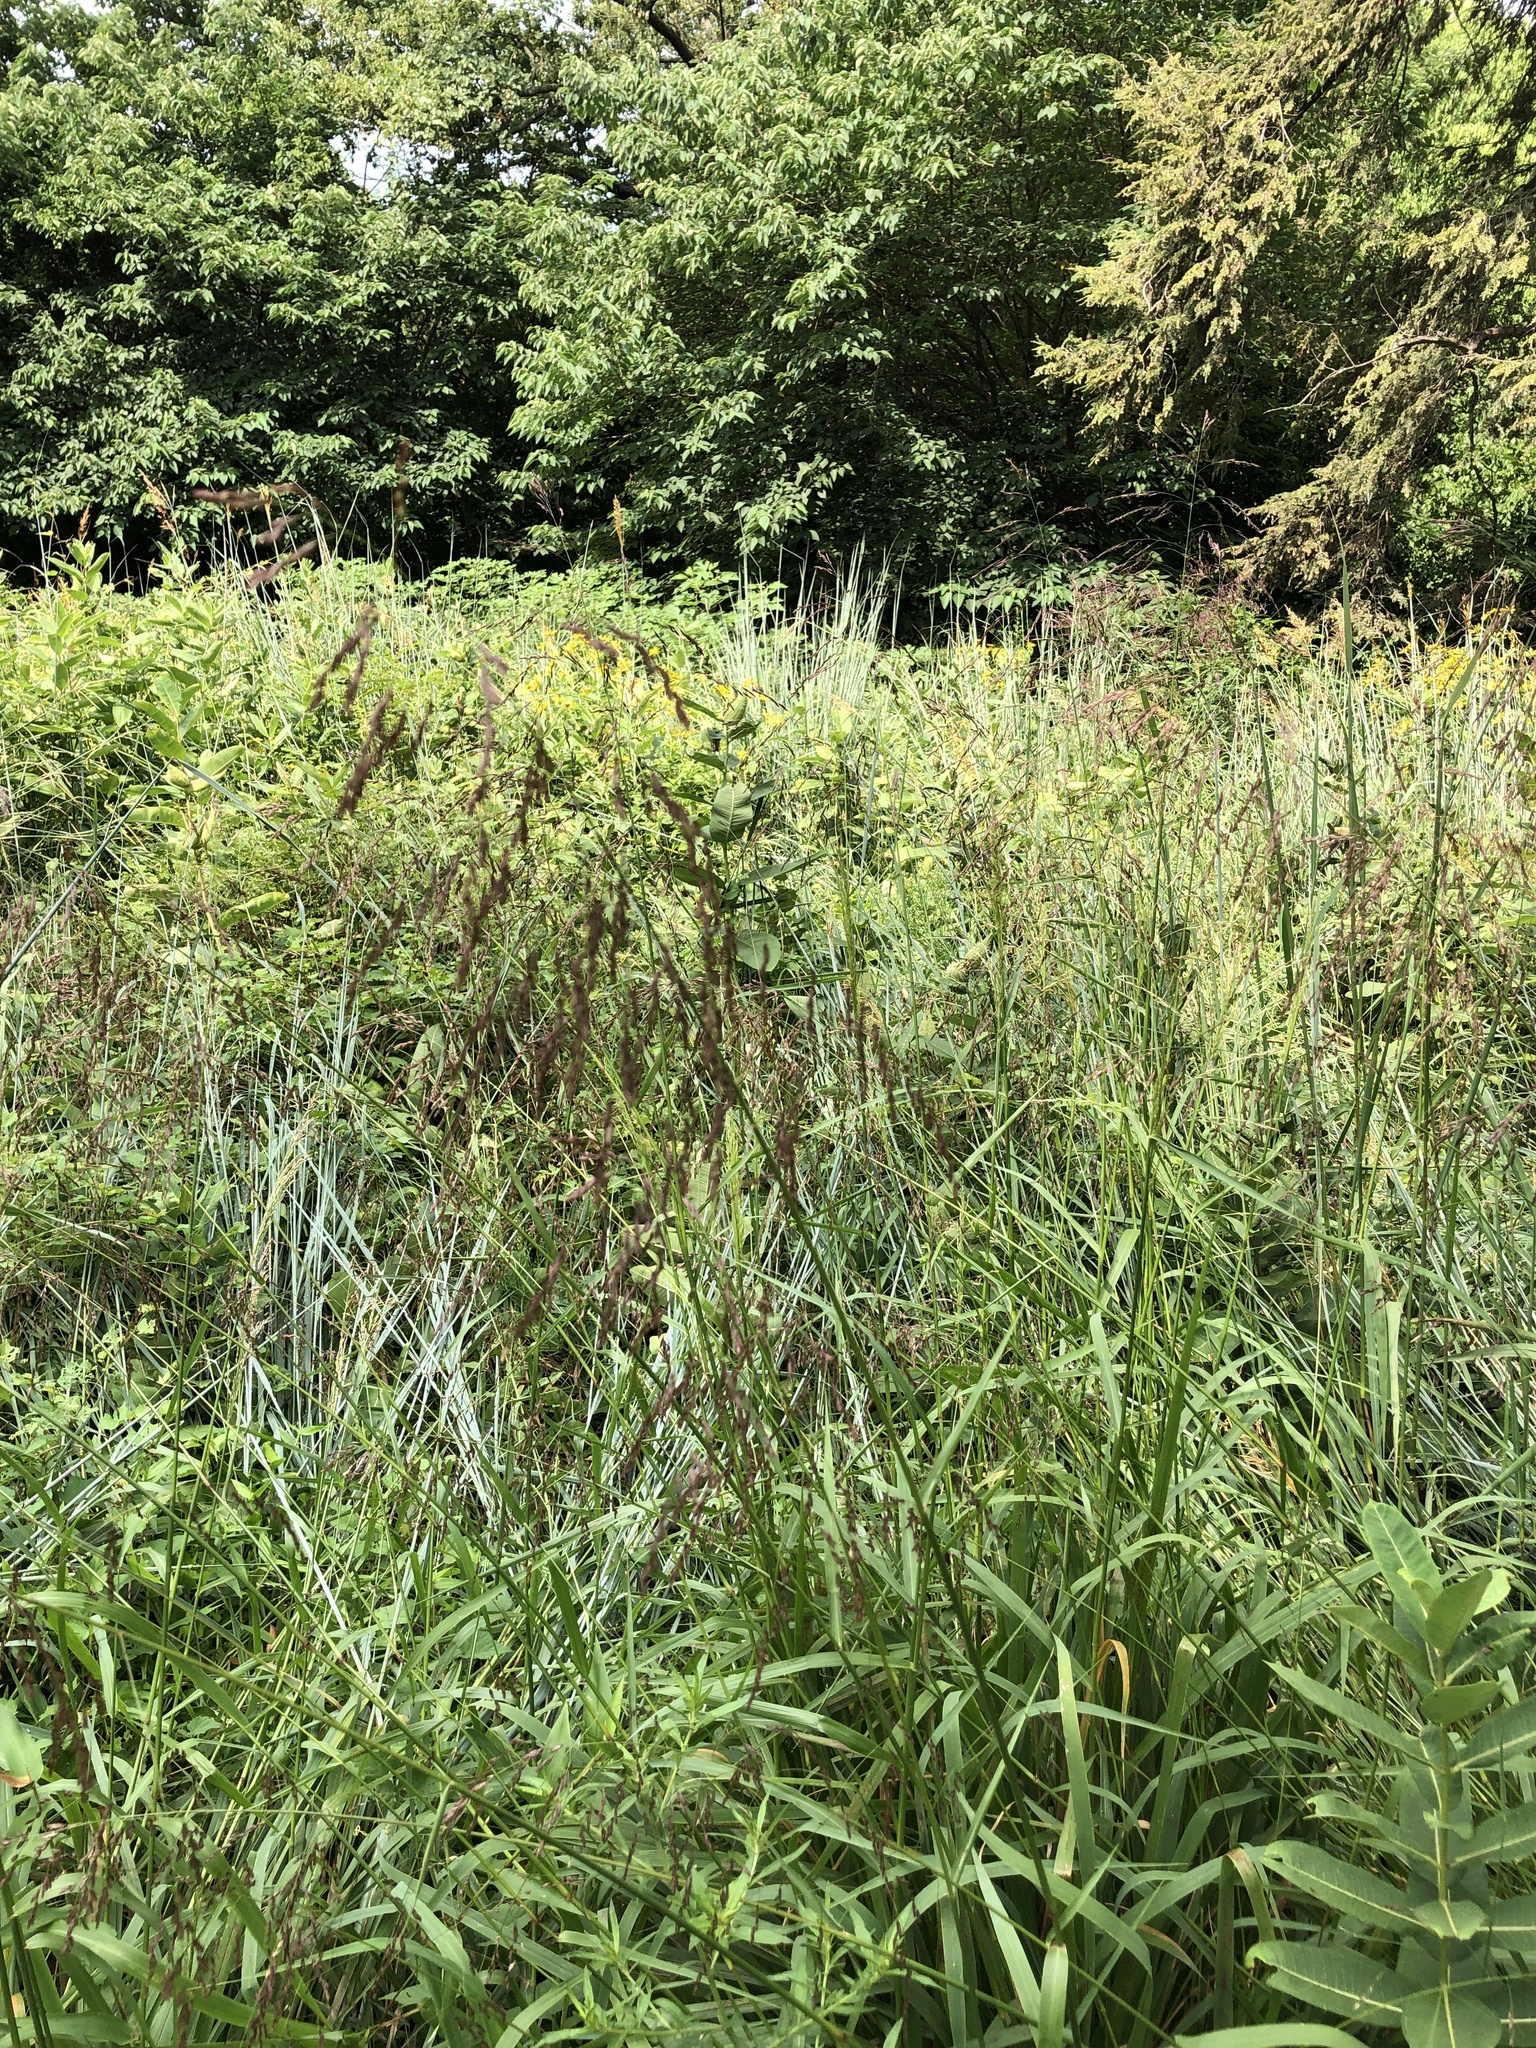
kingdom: Plantae
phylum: Tracheophyta
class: Liliopsida
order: Poales
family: Poaceae
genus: Tridens
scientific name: Tridens flavus
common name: Purpletop
